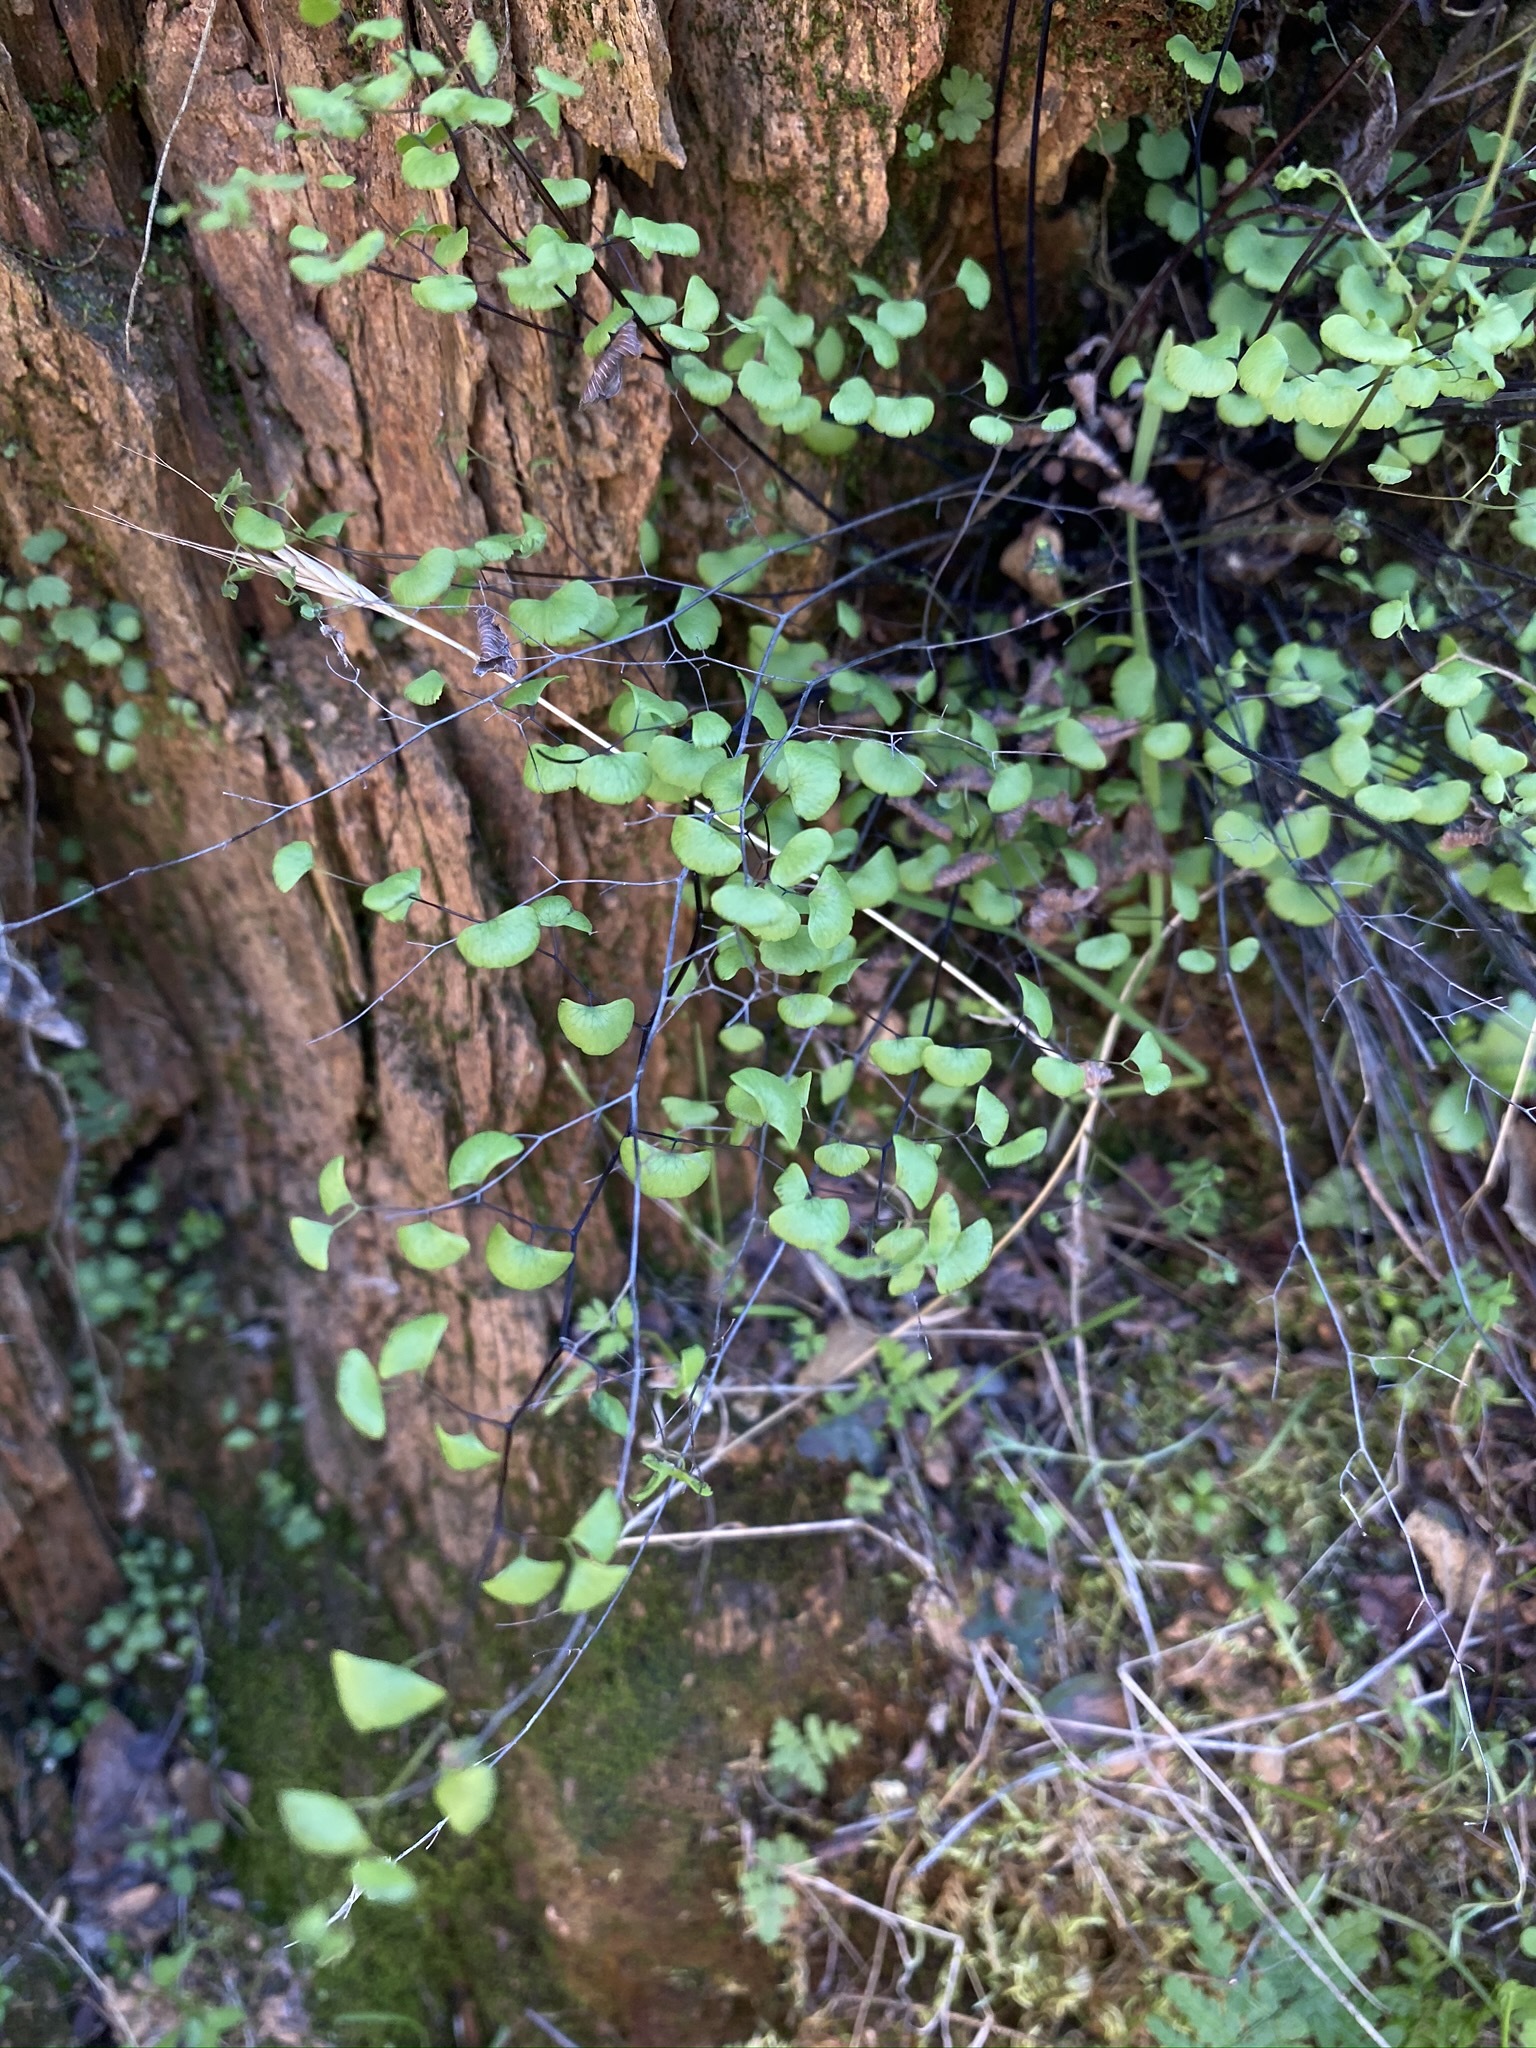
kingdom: Plantae
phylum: Tracheophyta
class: Polypodiopsida
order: Polypodiales
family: Pteridaceae
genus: Adiantum
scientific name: Adiantum jordanii
